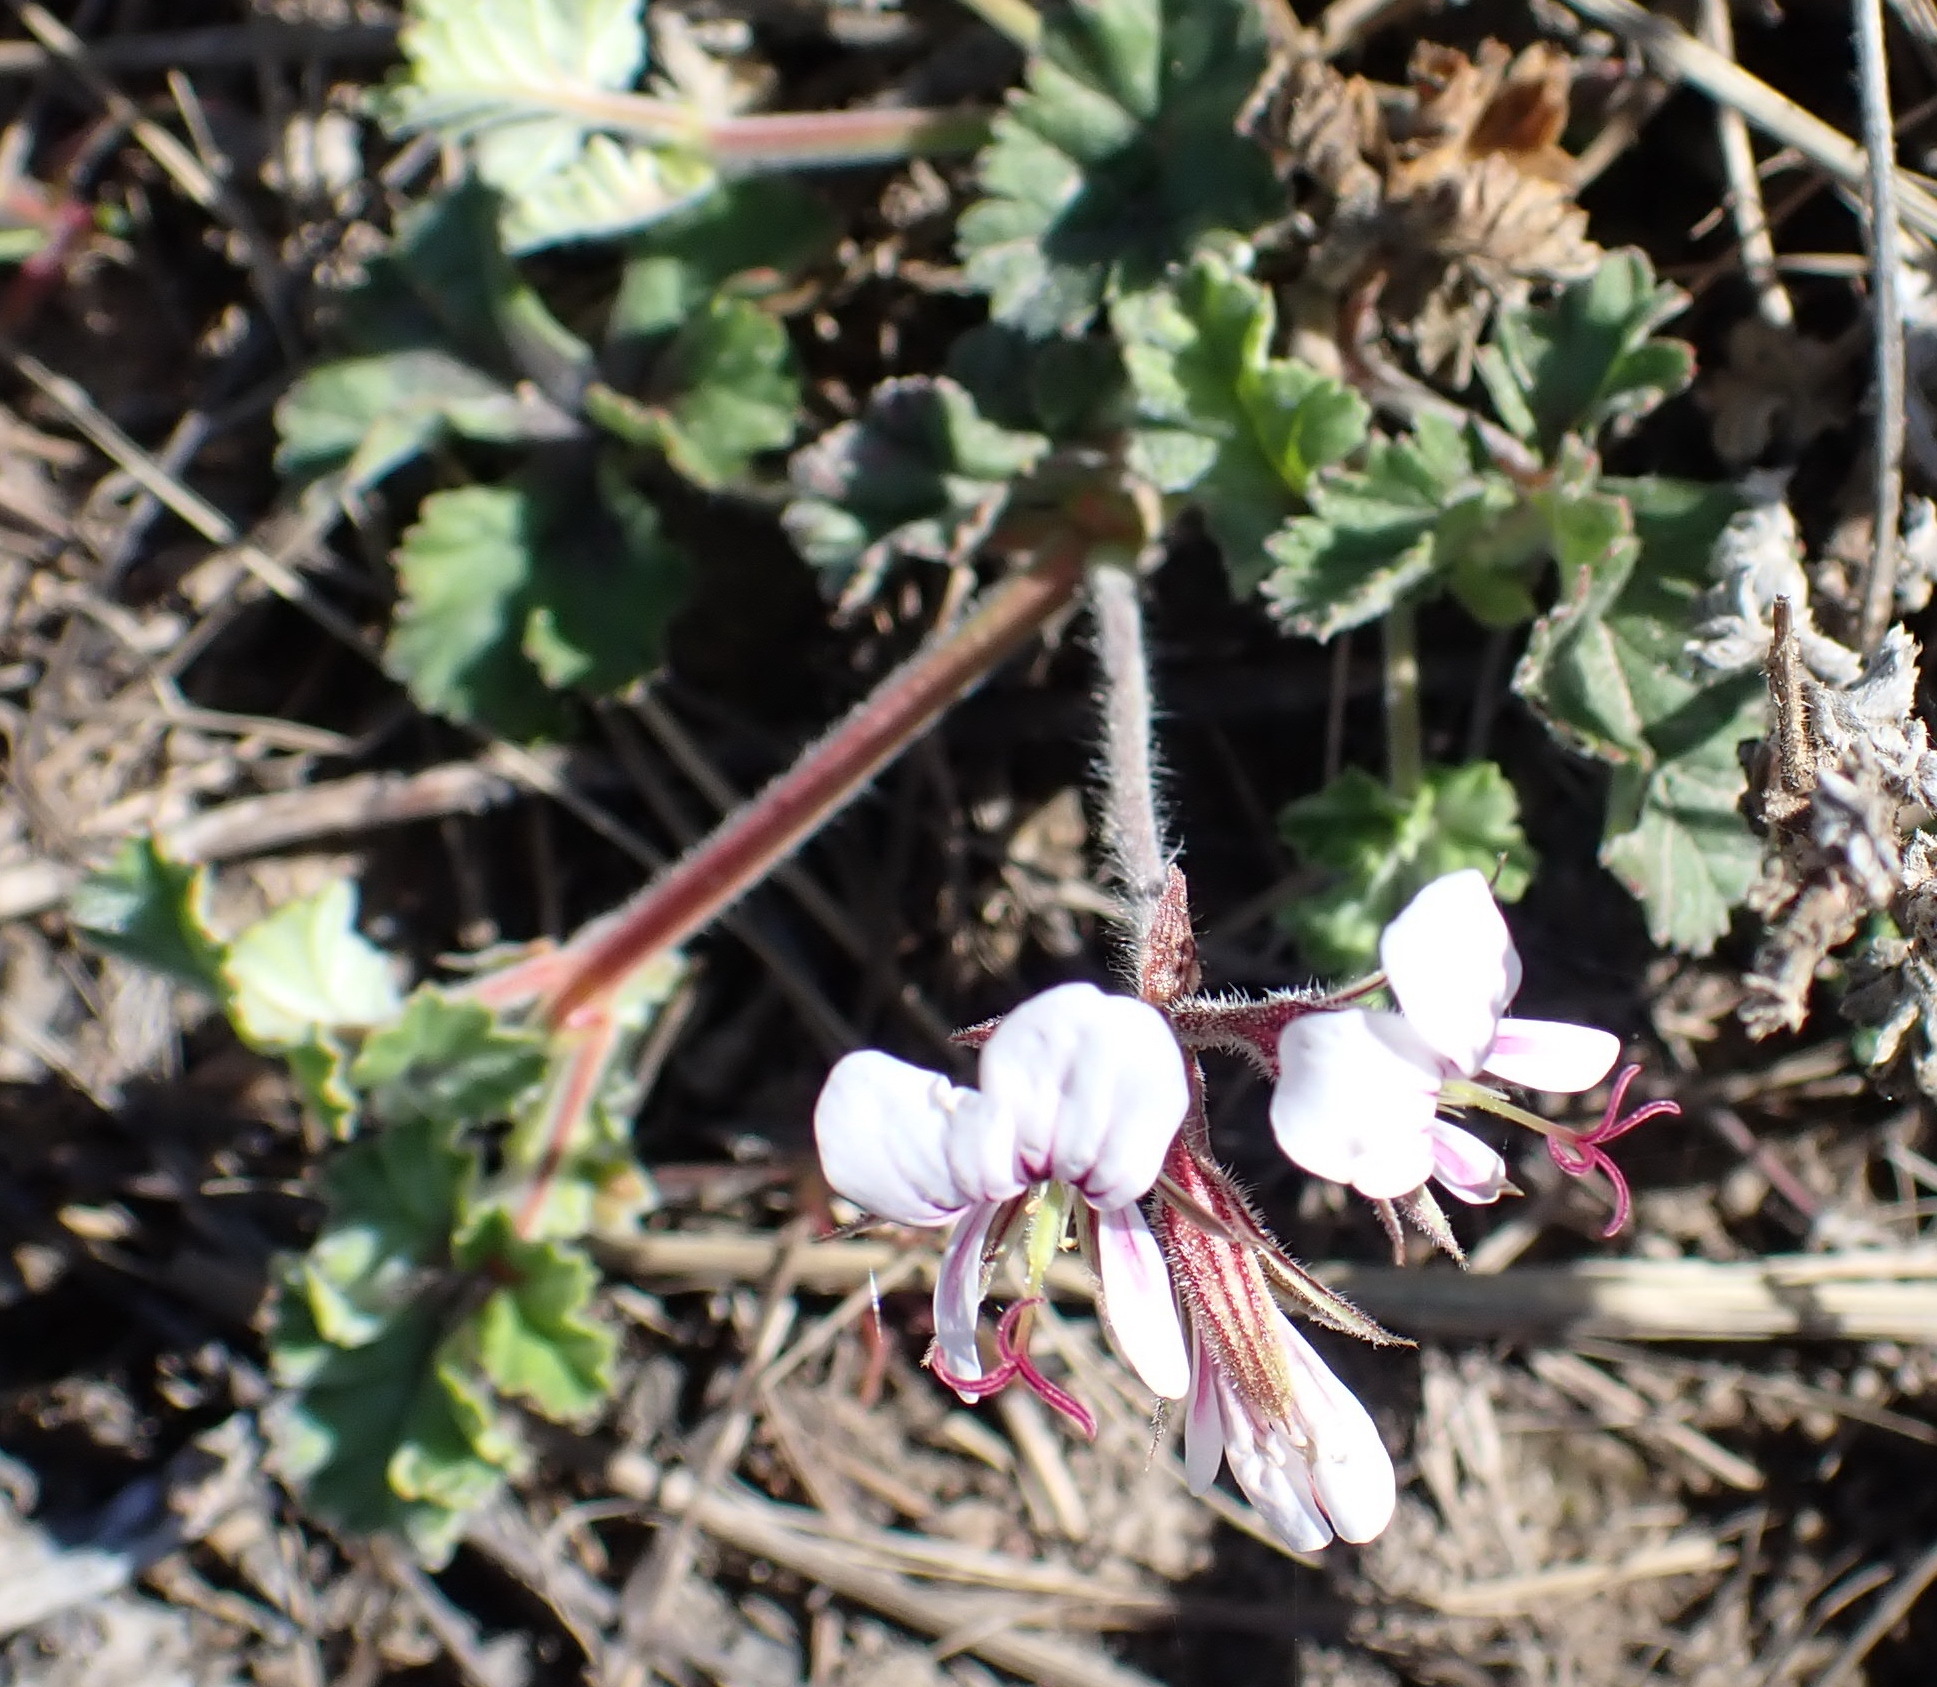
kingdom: Plantae
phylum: Tracheophyta
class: Magnoliopsida
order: Geraniales
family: Geraniaceae
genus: Pelargonium
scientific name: Pelargonium candicans
